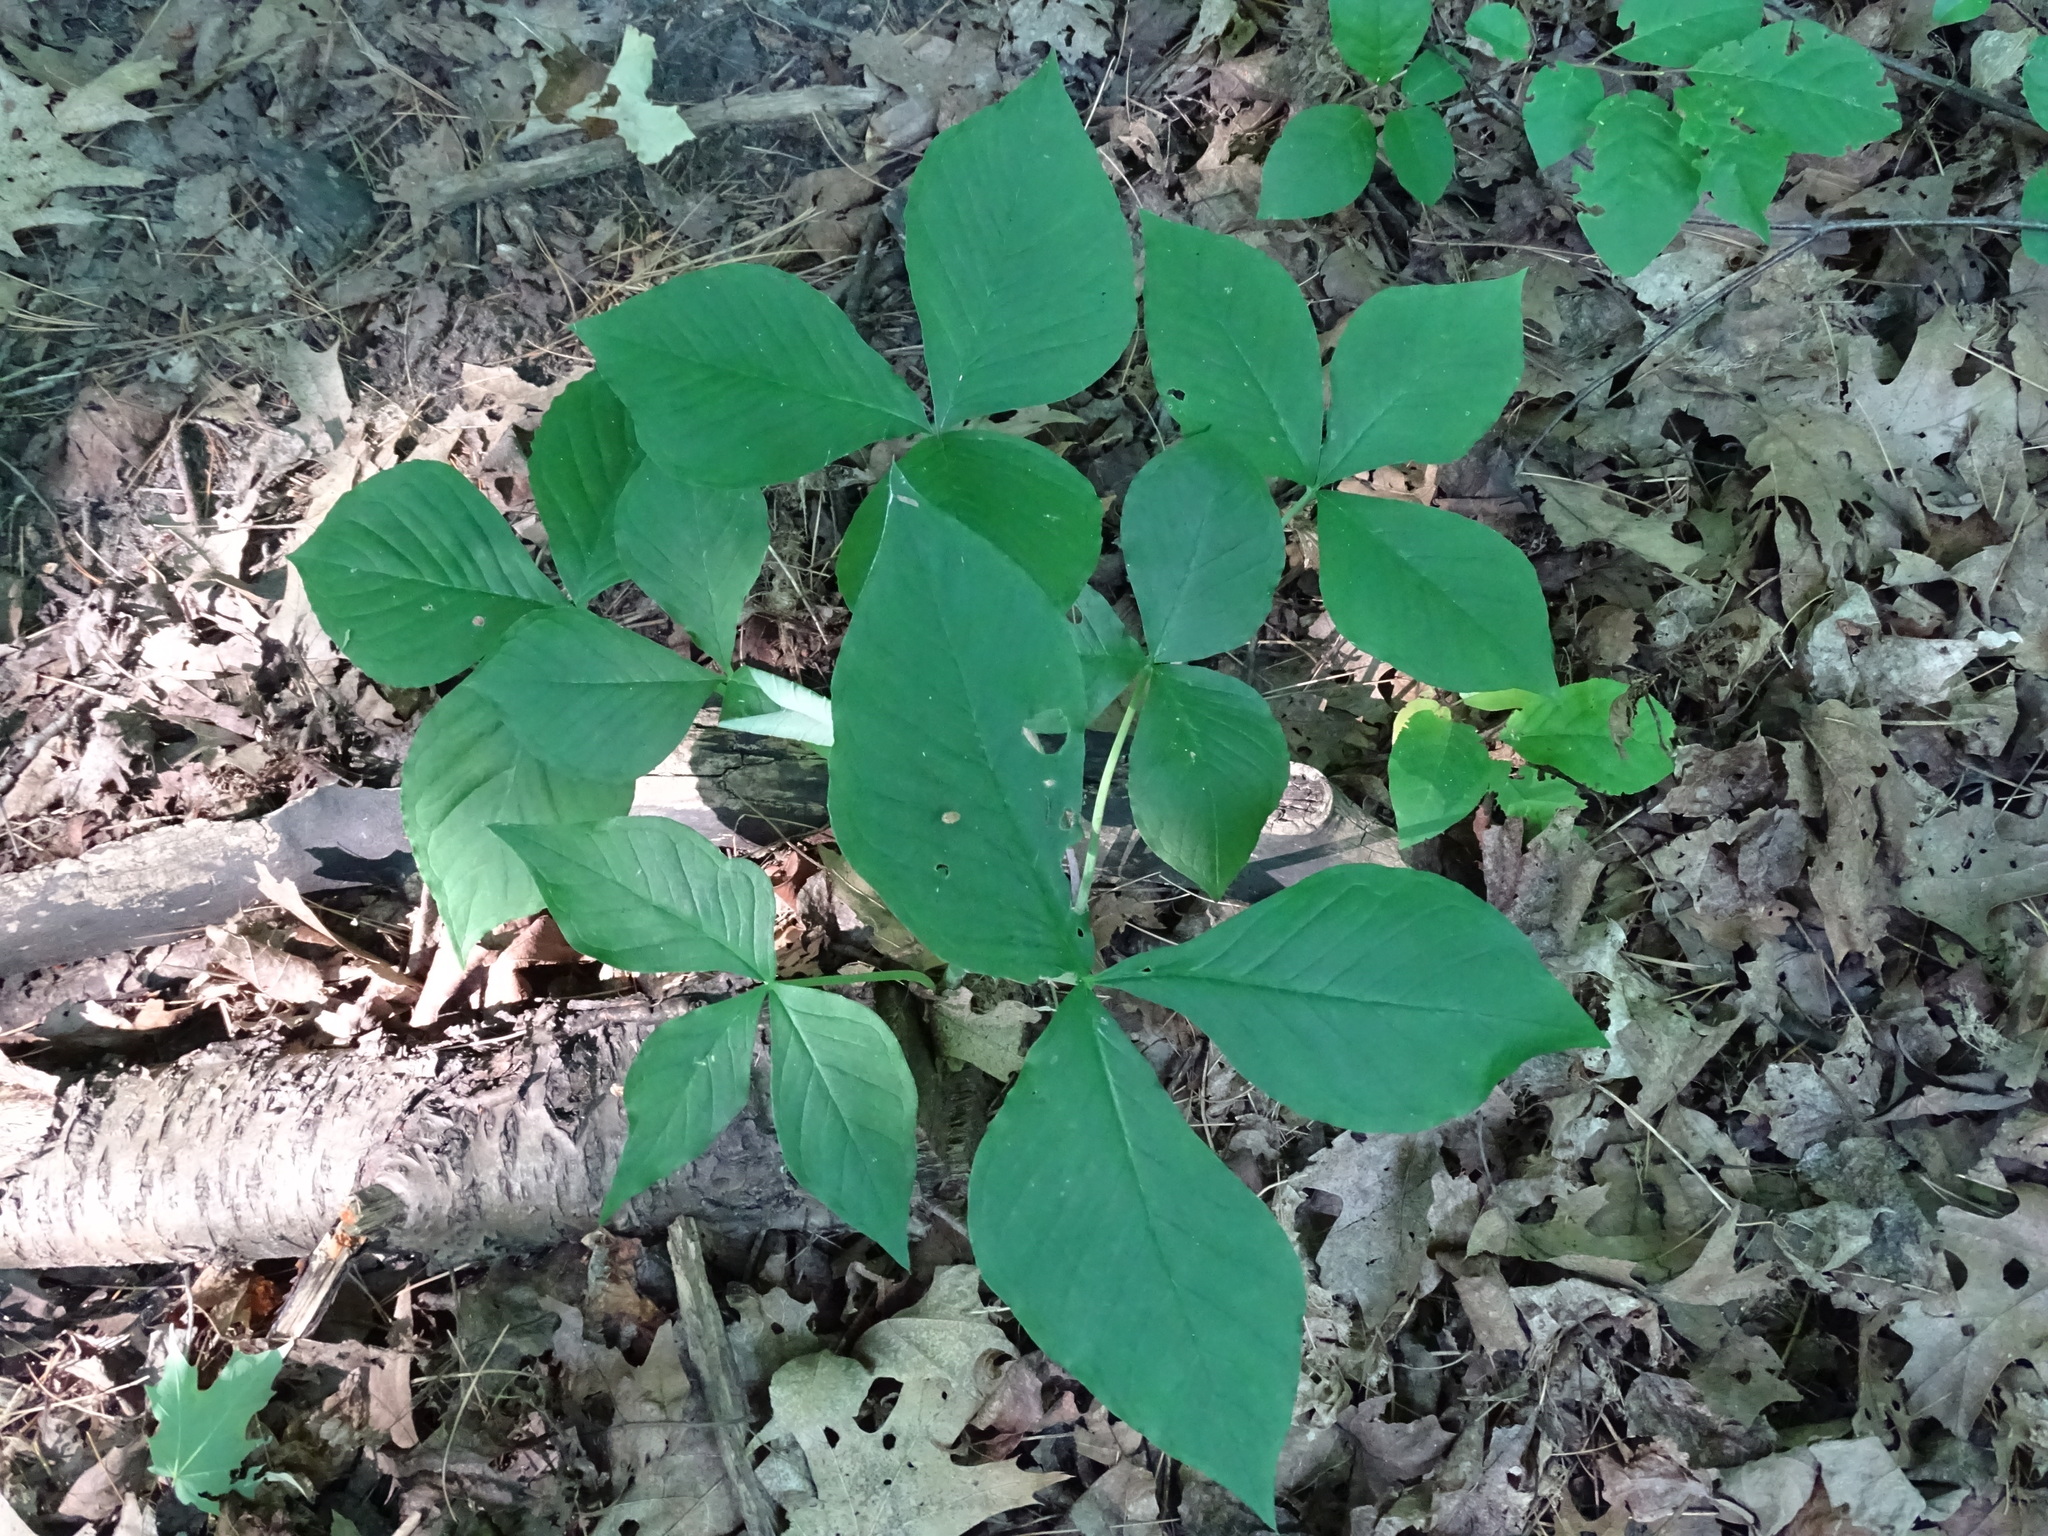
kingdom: Plantae
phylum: Tracheophyta
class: Liliopsida
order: Alismatales
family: Araceae
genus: Arisaema
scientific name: Arisaema triphyllum
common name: Jack-in-the-pulpit
